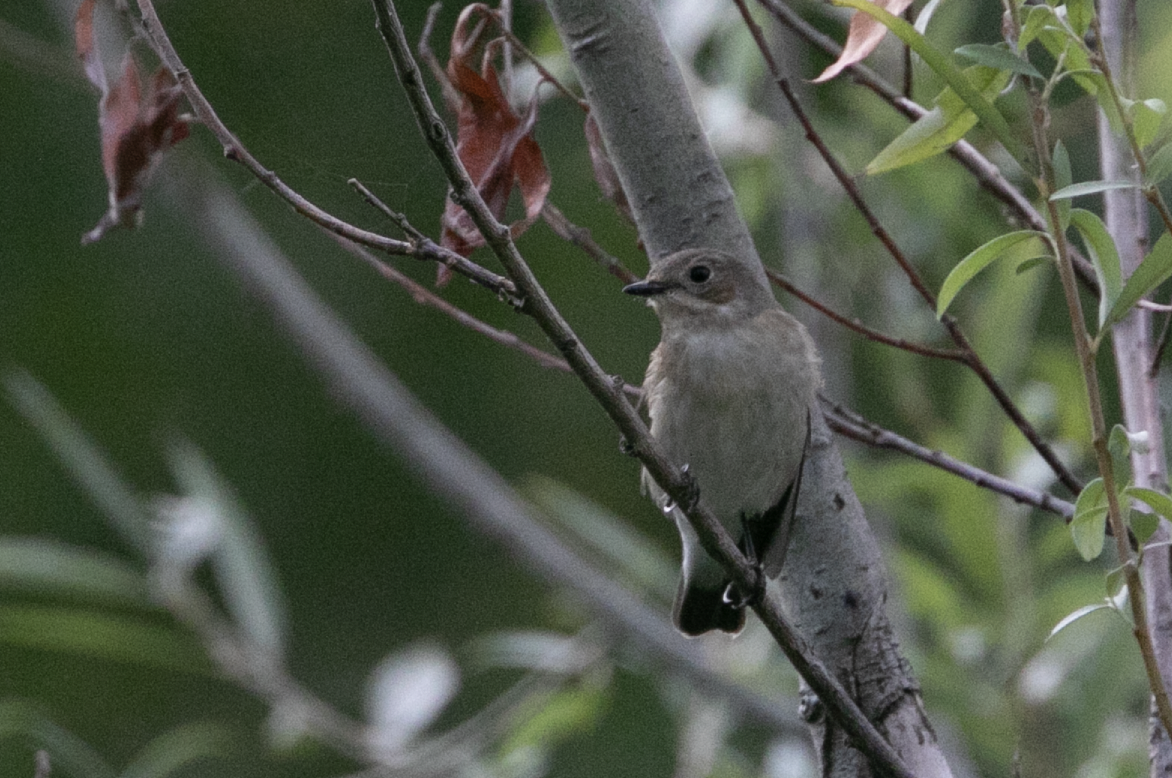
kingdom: Animalia
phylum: Chordata
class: Aves
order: Passeriformes
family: Muscicapidae
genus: Ficedula
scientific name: Ficedula hypoleuca
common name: European pied flycatcher
